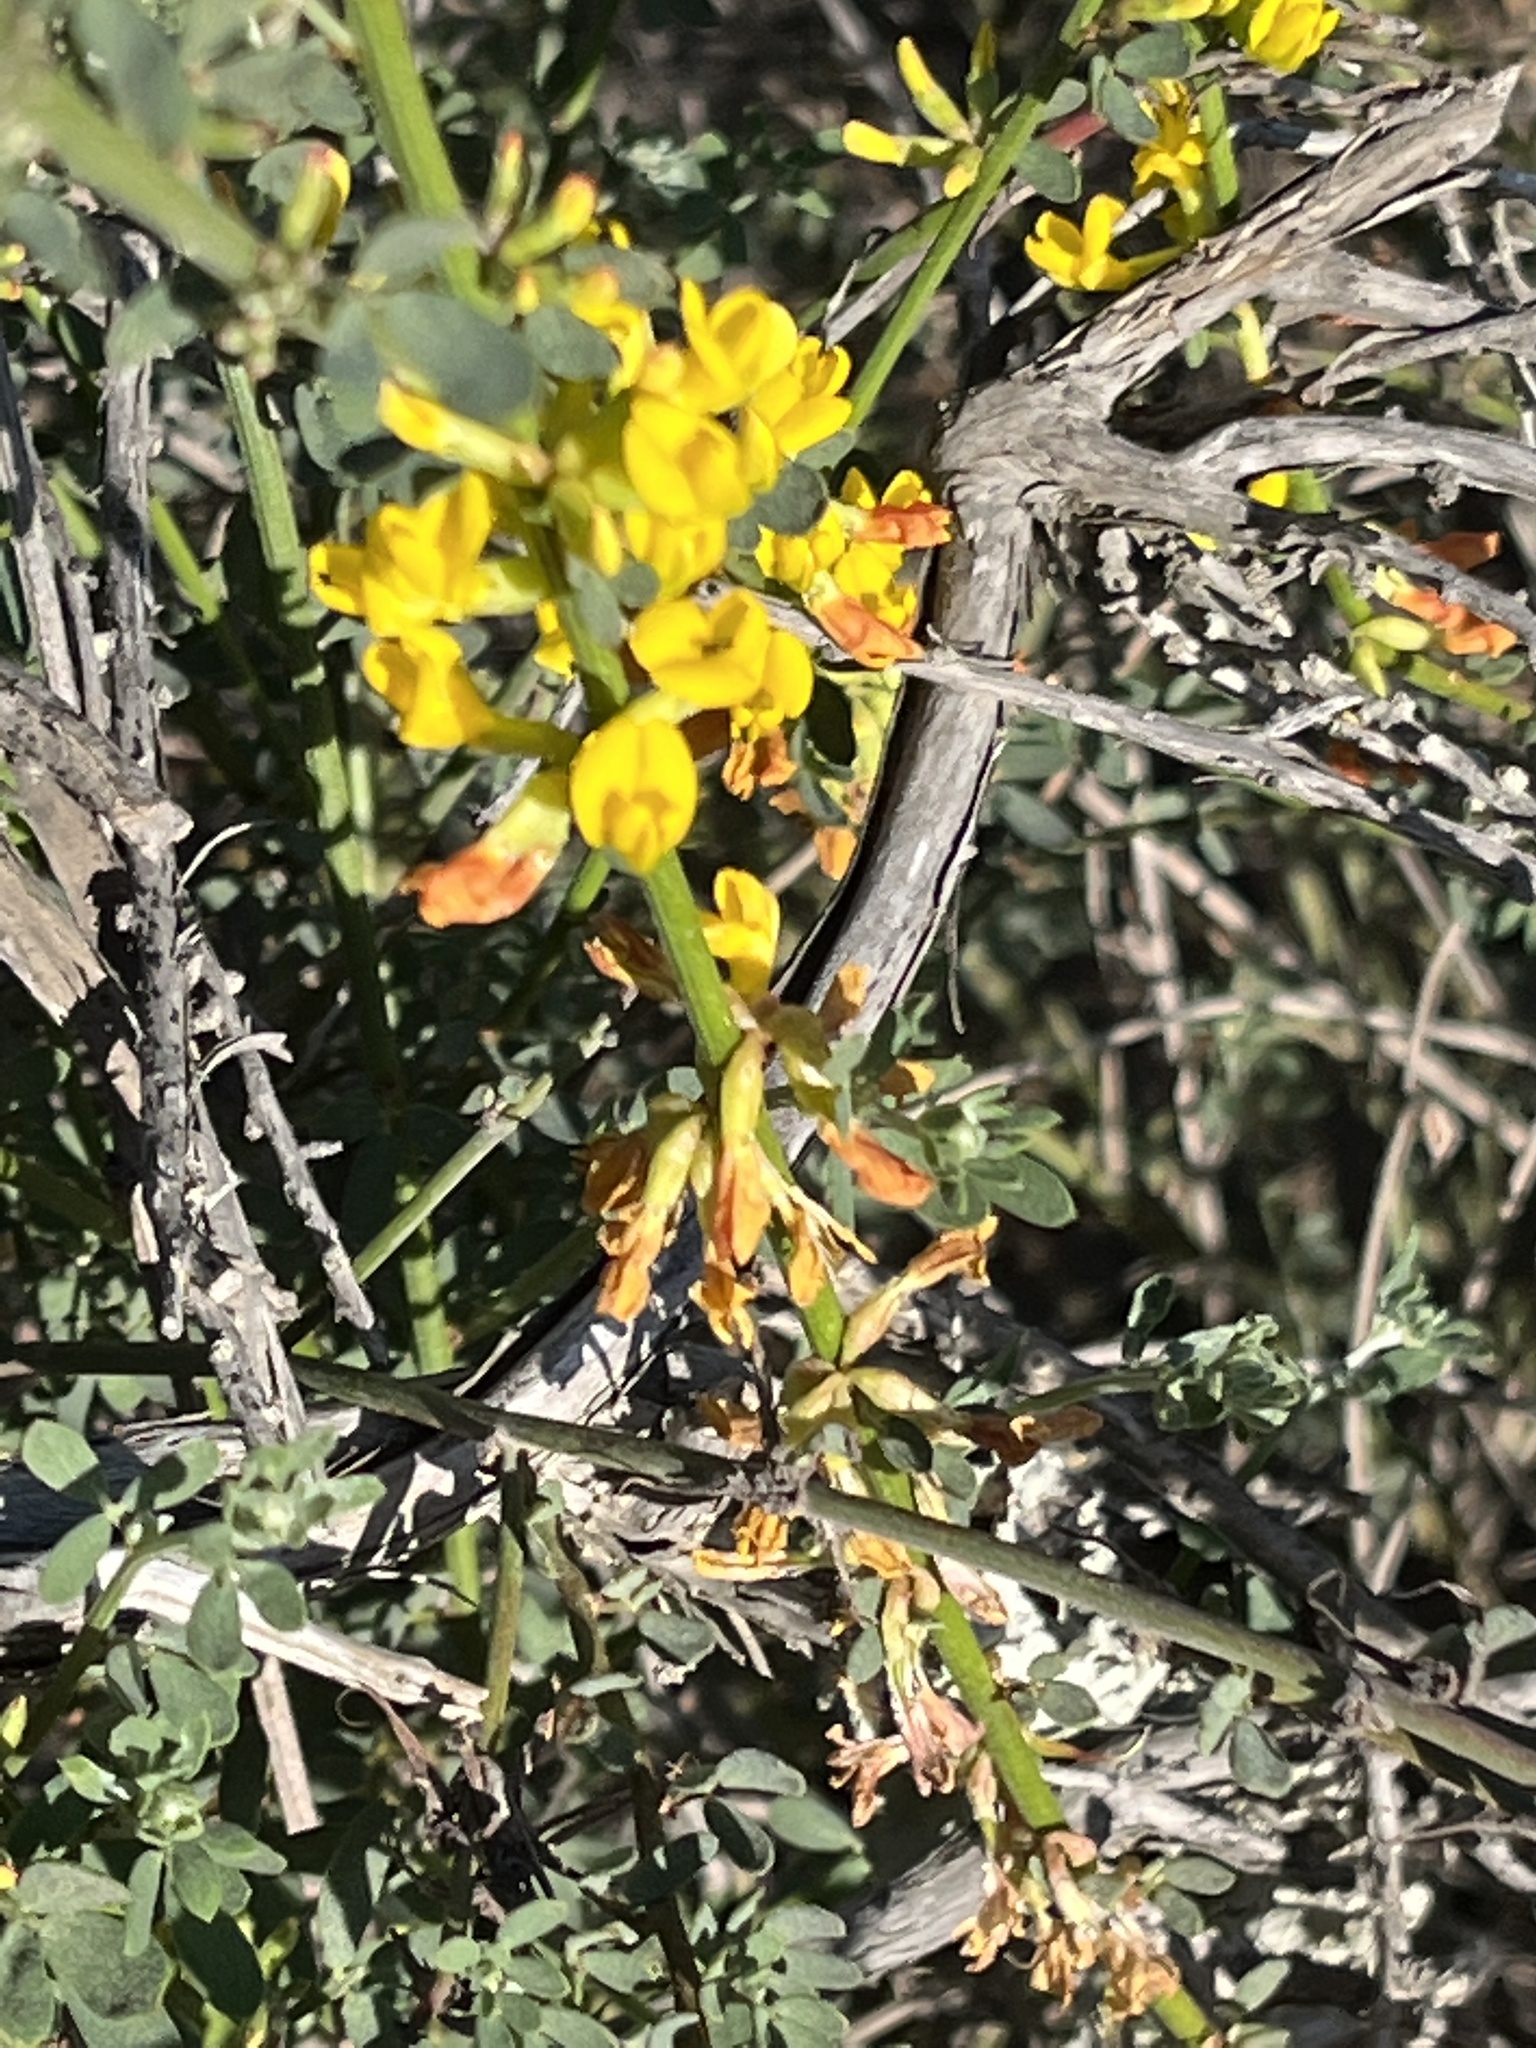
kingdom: Plantae
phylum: Tracheophyta
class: Magnoliopsida
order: Fabales
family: Fabaceae
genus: Acmispon
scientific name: Acmispon glaber
